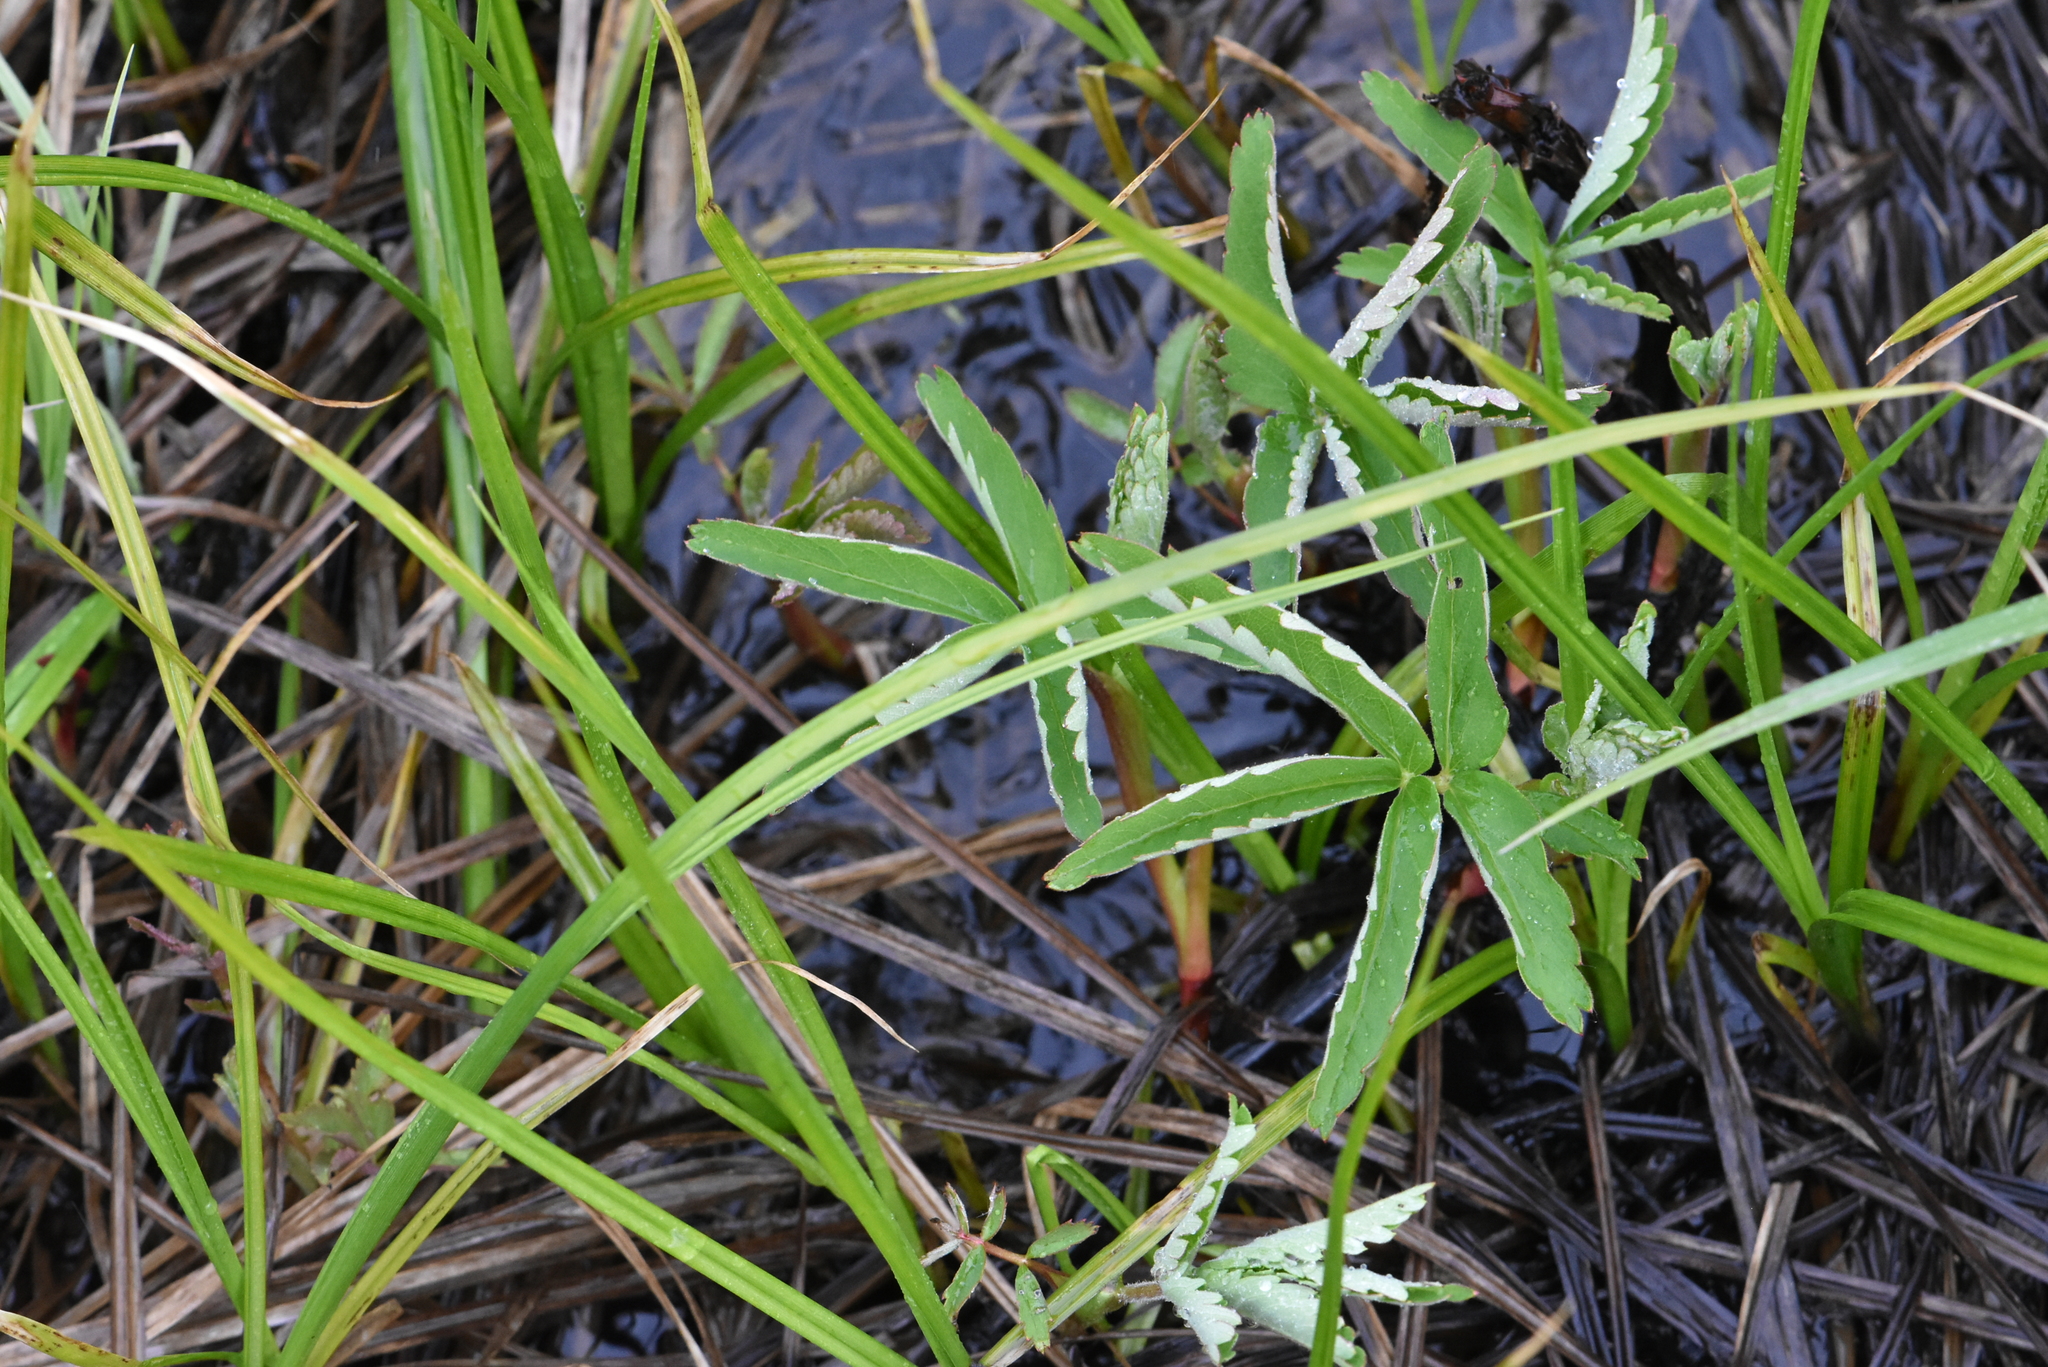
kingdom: Plantae
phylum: Tracheophyta
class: Magnoliopsida
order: Rosales
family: Rosaceae
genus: Comarum
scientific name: Comarum palustre
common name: Marsh cinquefoil
